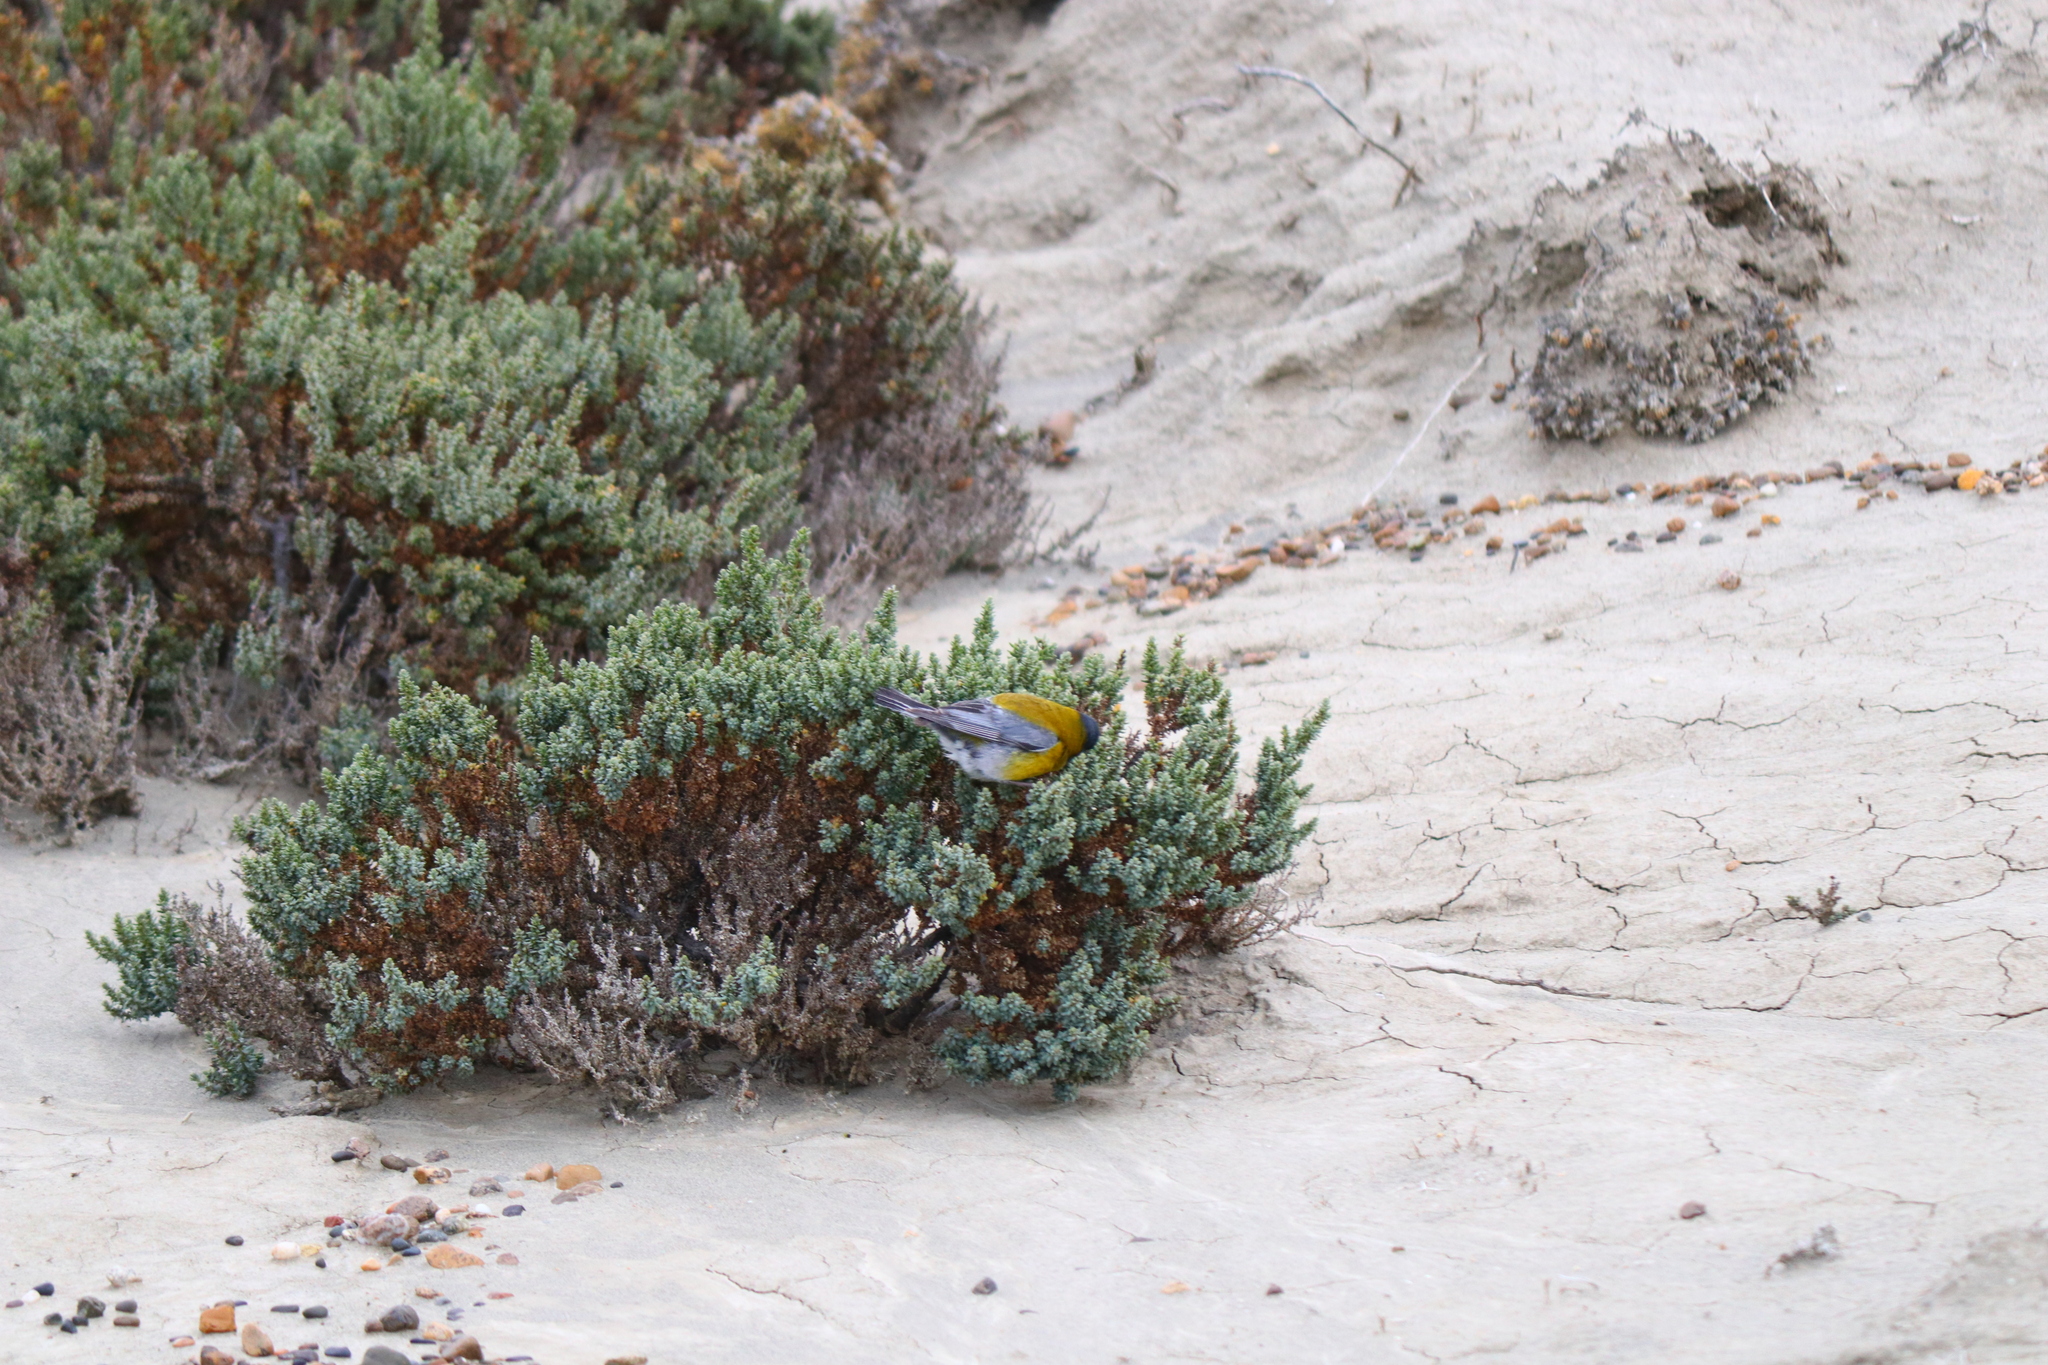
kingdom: Animalia
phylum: Chordata
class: Aves
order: Passeriformes
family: Thraupidae
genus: Phrygilus
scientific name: Phrygilus gayi
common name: Grey-hooded sierra finch
